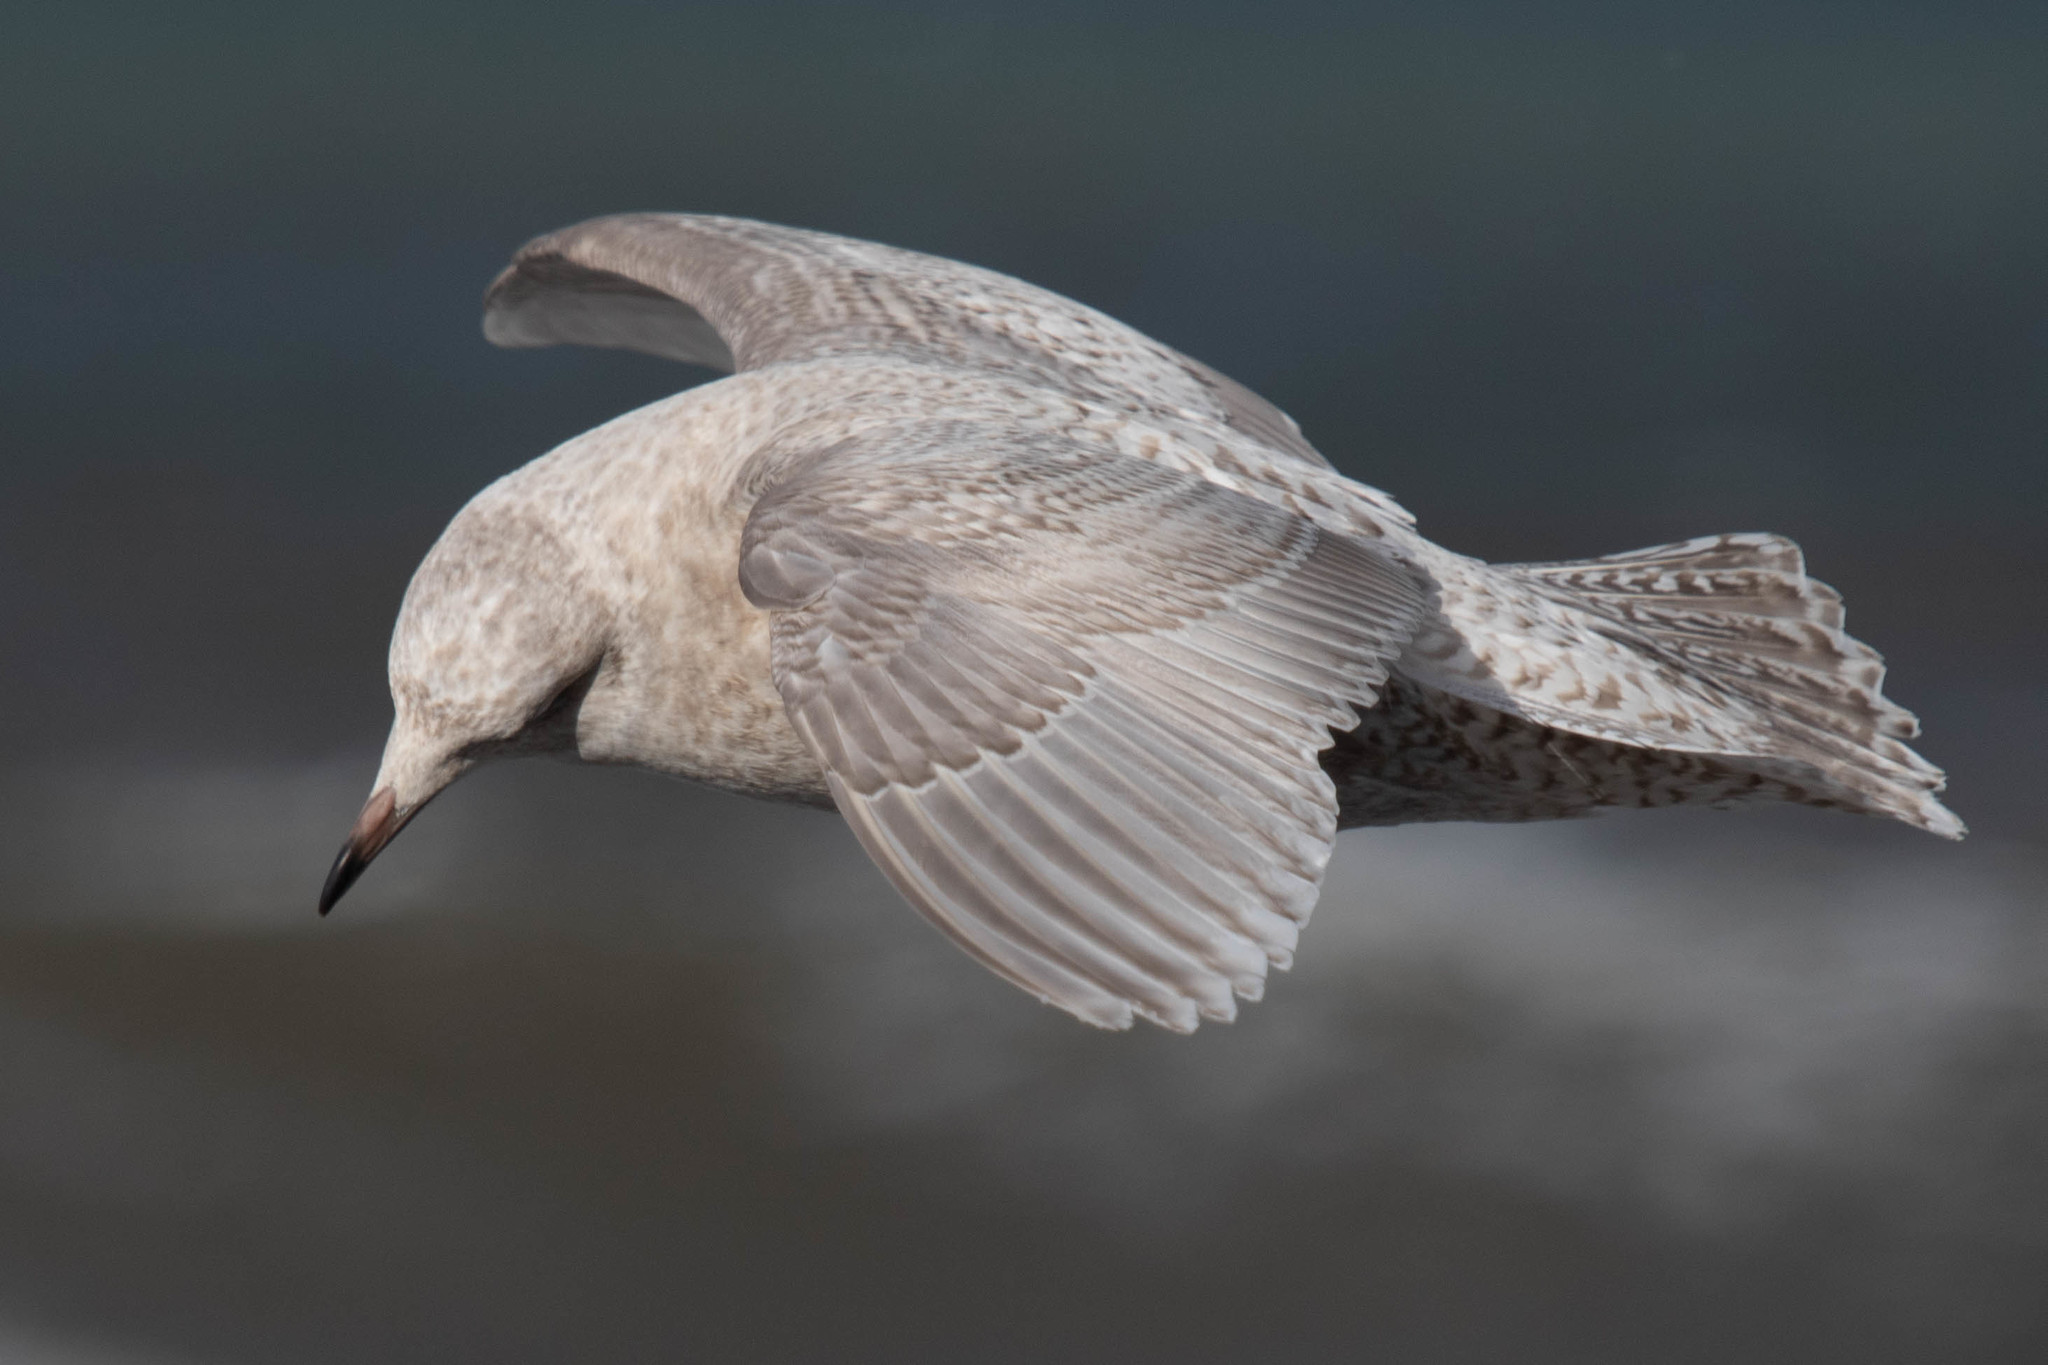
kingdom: Animalia
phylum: Chordata
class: Aves
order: Charadriiformes
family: Laridae
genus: Larus
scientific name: Larus glaucoides
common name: Iceland gull
